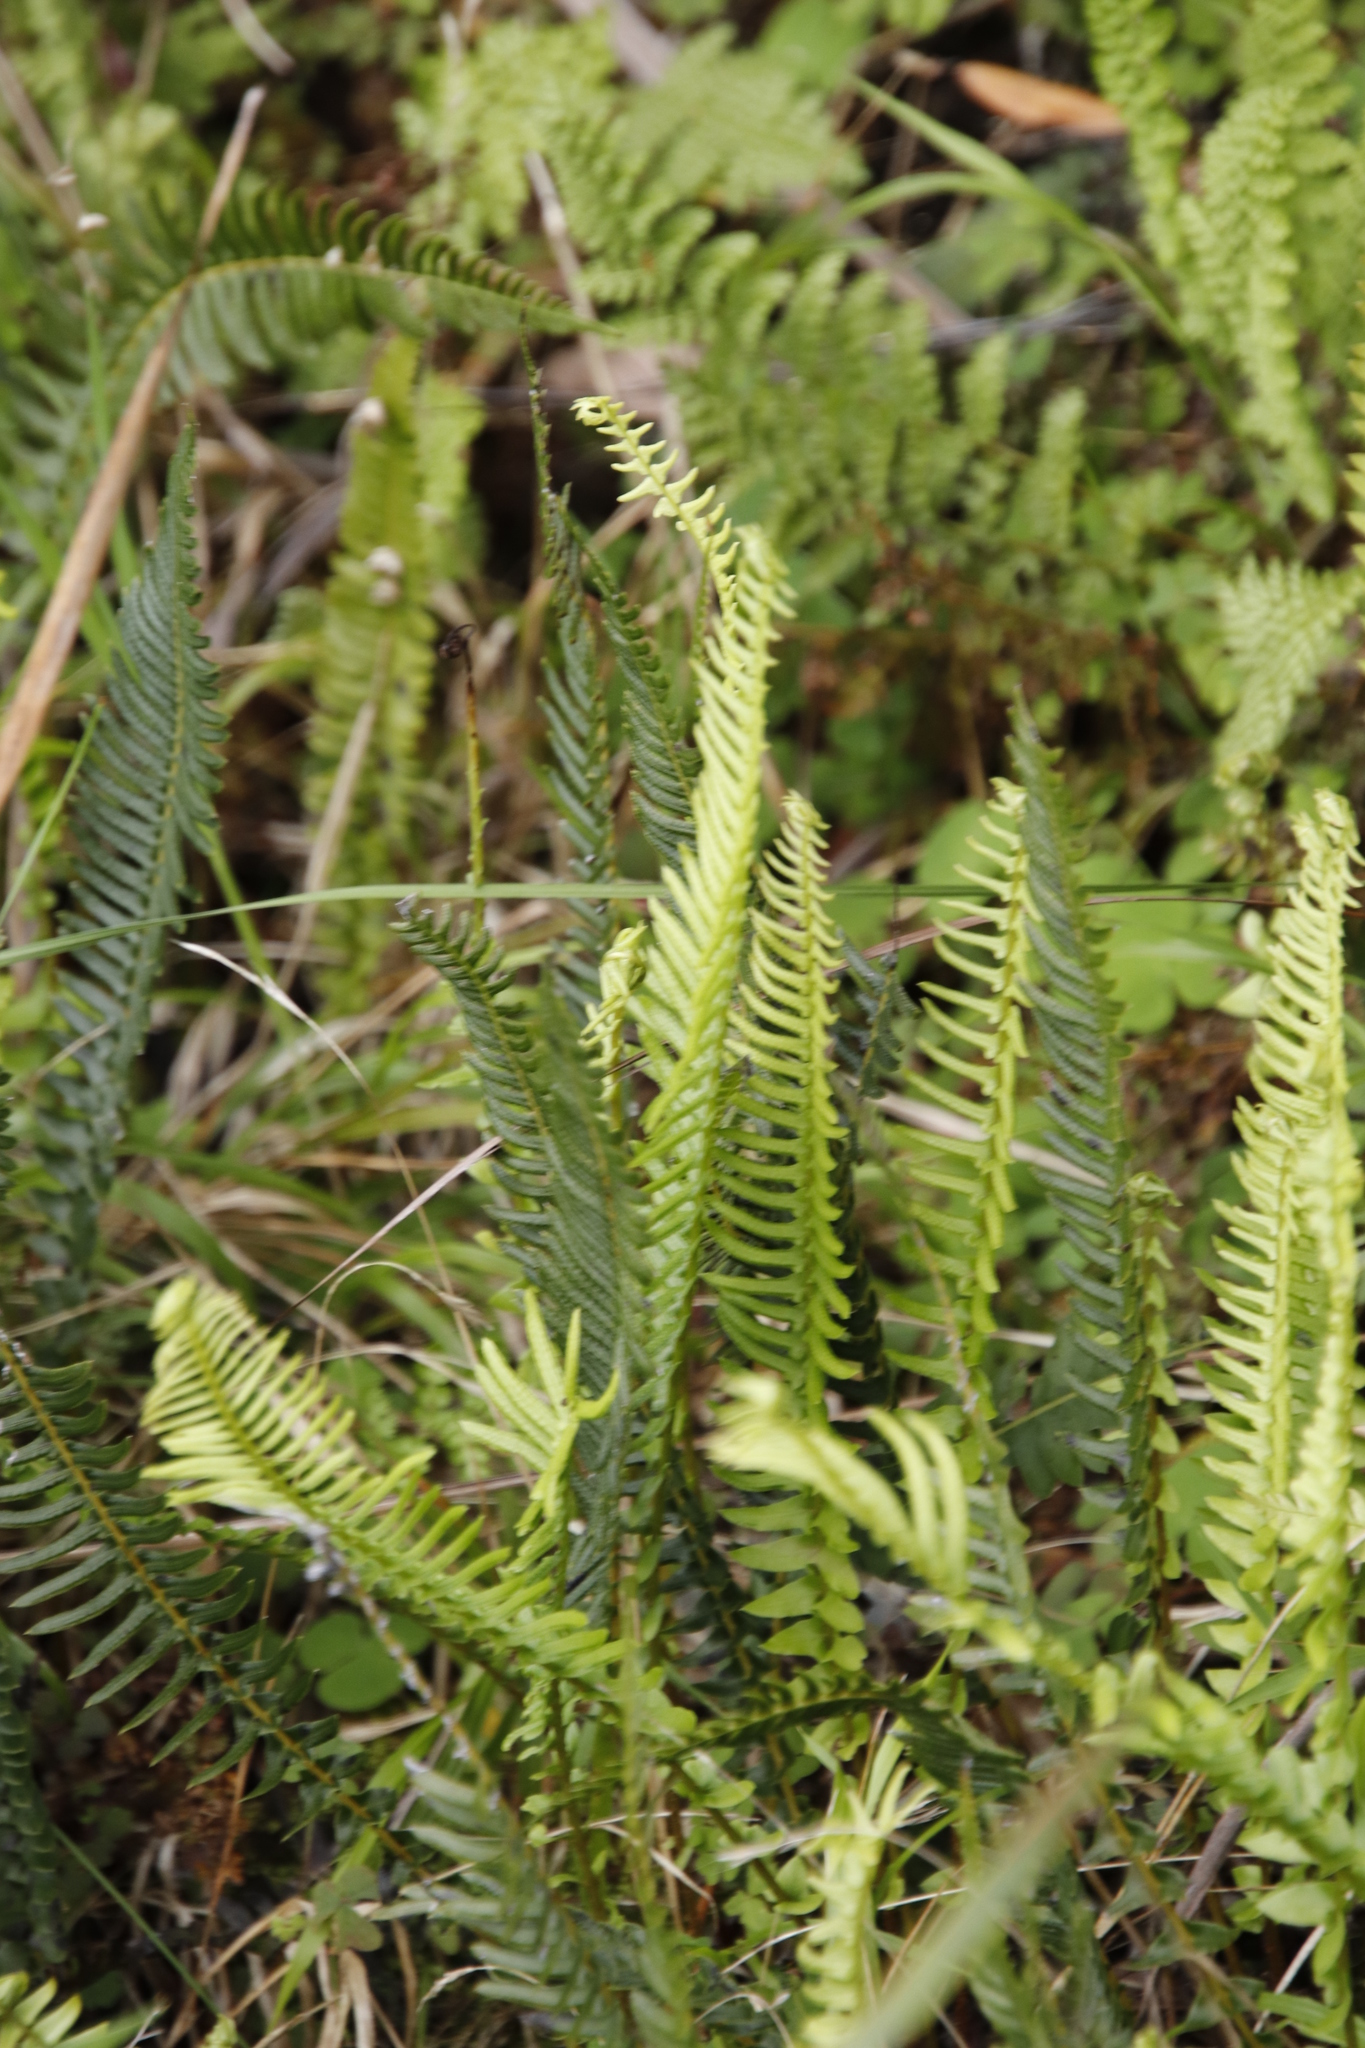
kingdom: Plantae
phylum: Tracheophyta
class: Polypodiopsida
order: Polypodiales
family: Blechnaceae
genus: Blechnum
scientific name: Blechnum australe
